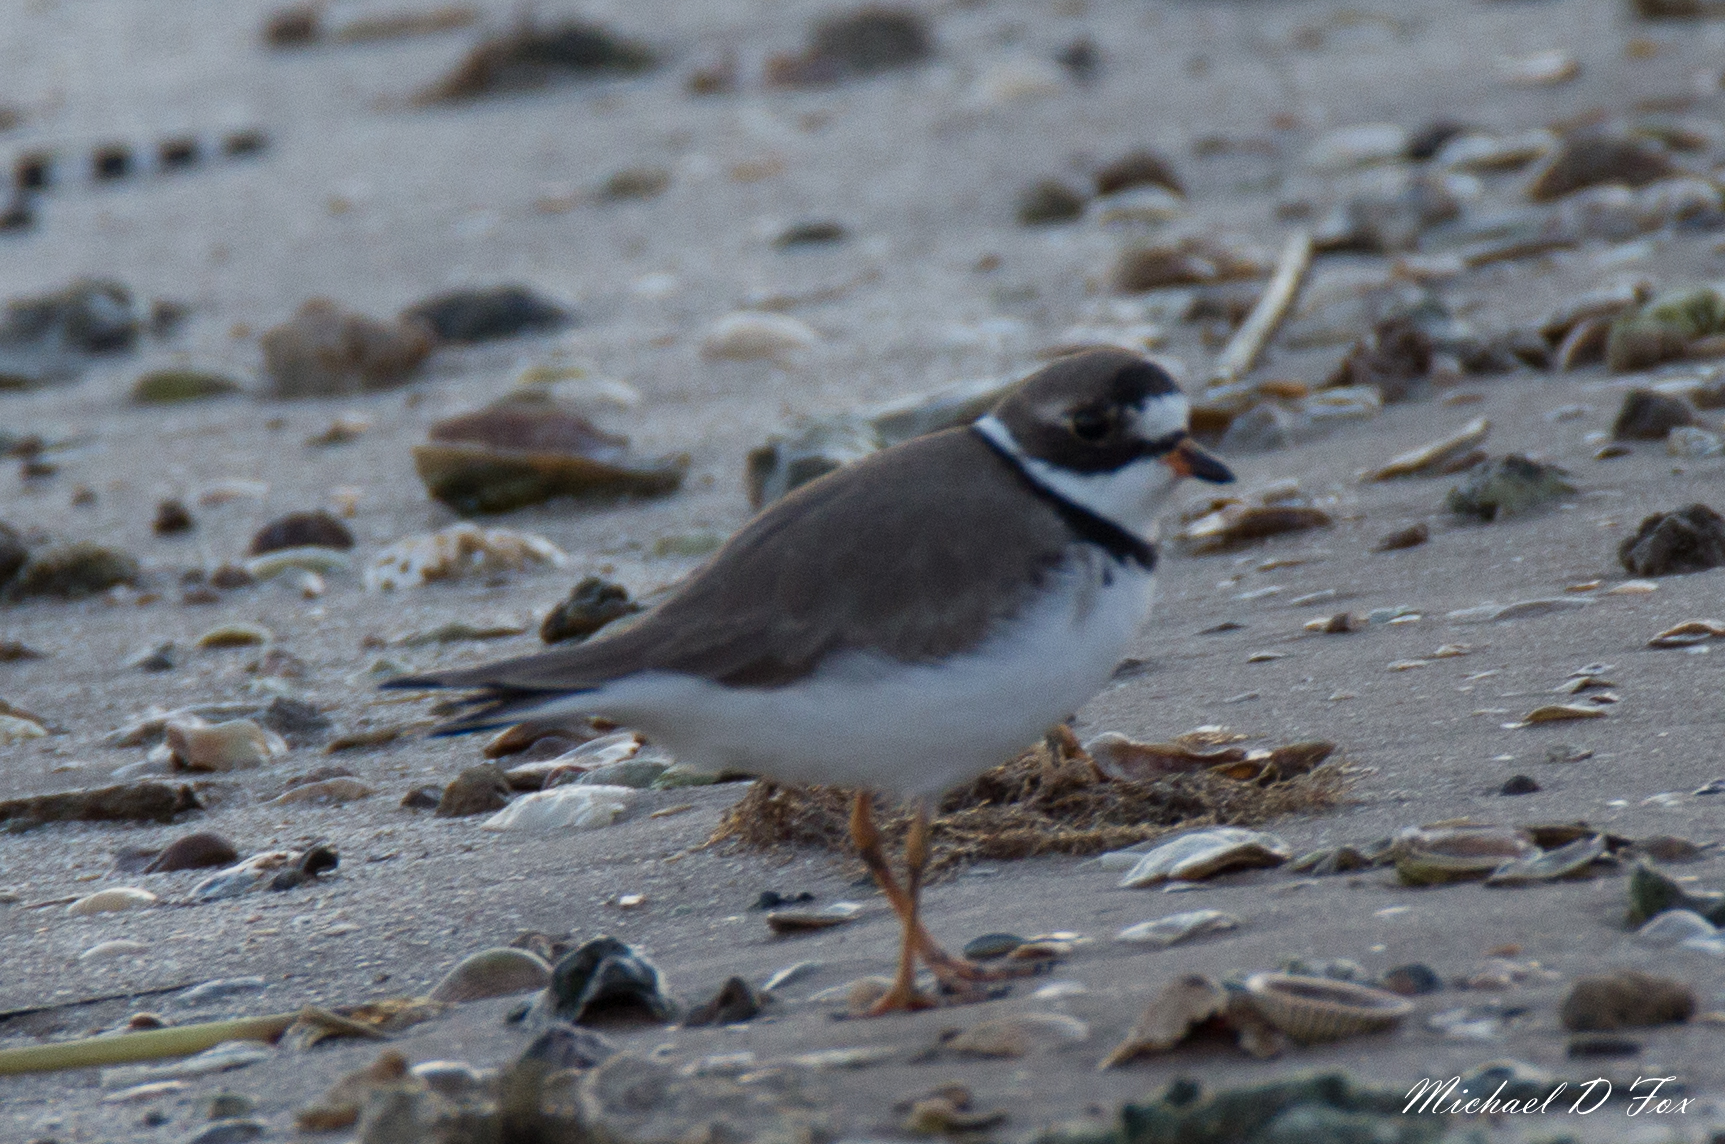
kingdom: Animalia
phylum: Chordata
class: Aves
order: Charadriiformes
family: Charadriidae
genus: Charadrius
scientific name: Charadrius semipalmatus
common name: Semipalmated plover
